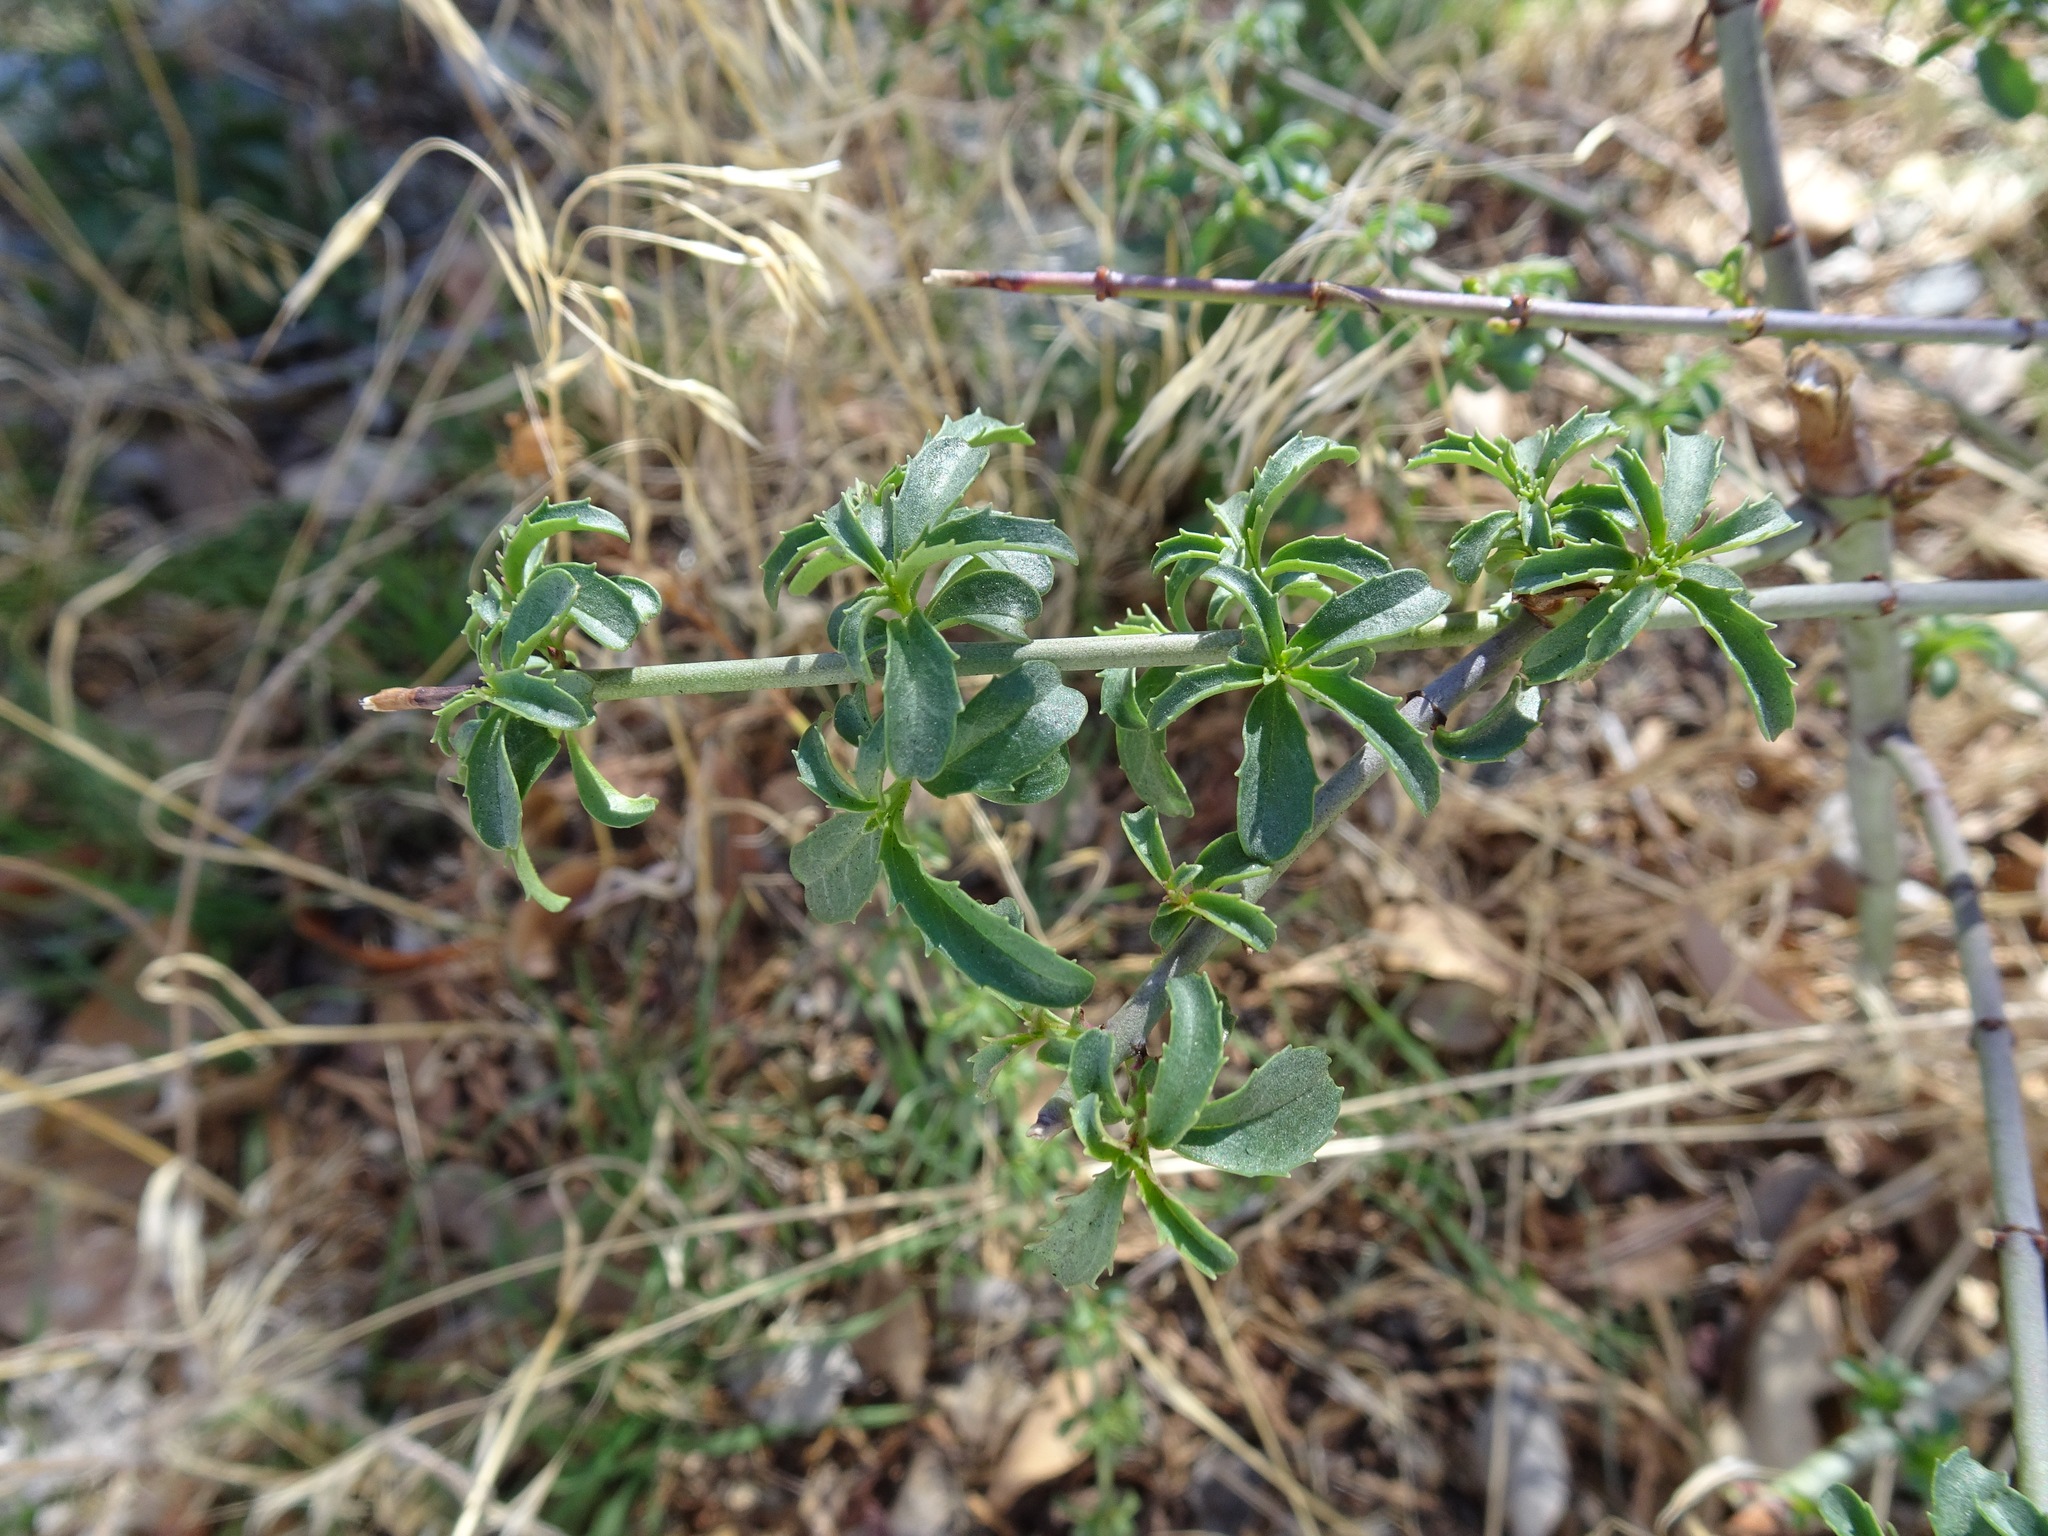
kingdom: Plantae
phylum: Tracheophyta
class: Magnoliopsida
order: Lamiales
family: Plantaginaceae
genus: Keckiella
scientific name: Keckiella ternata
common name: Scarlet keckiella
